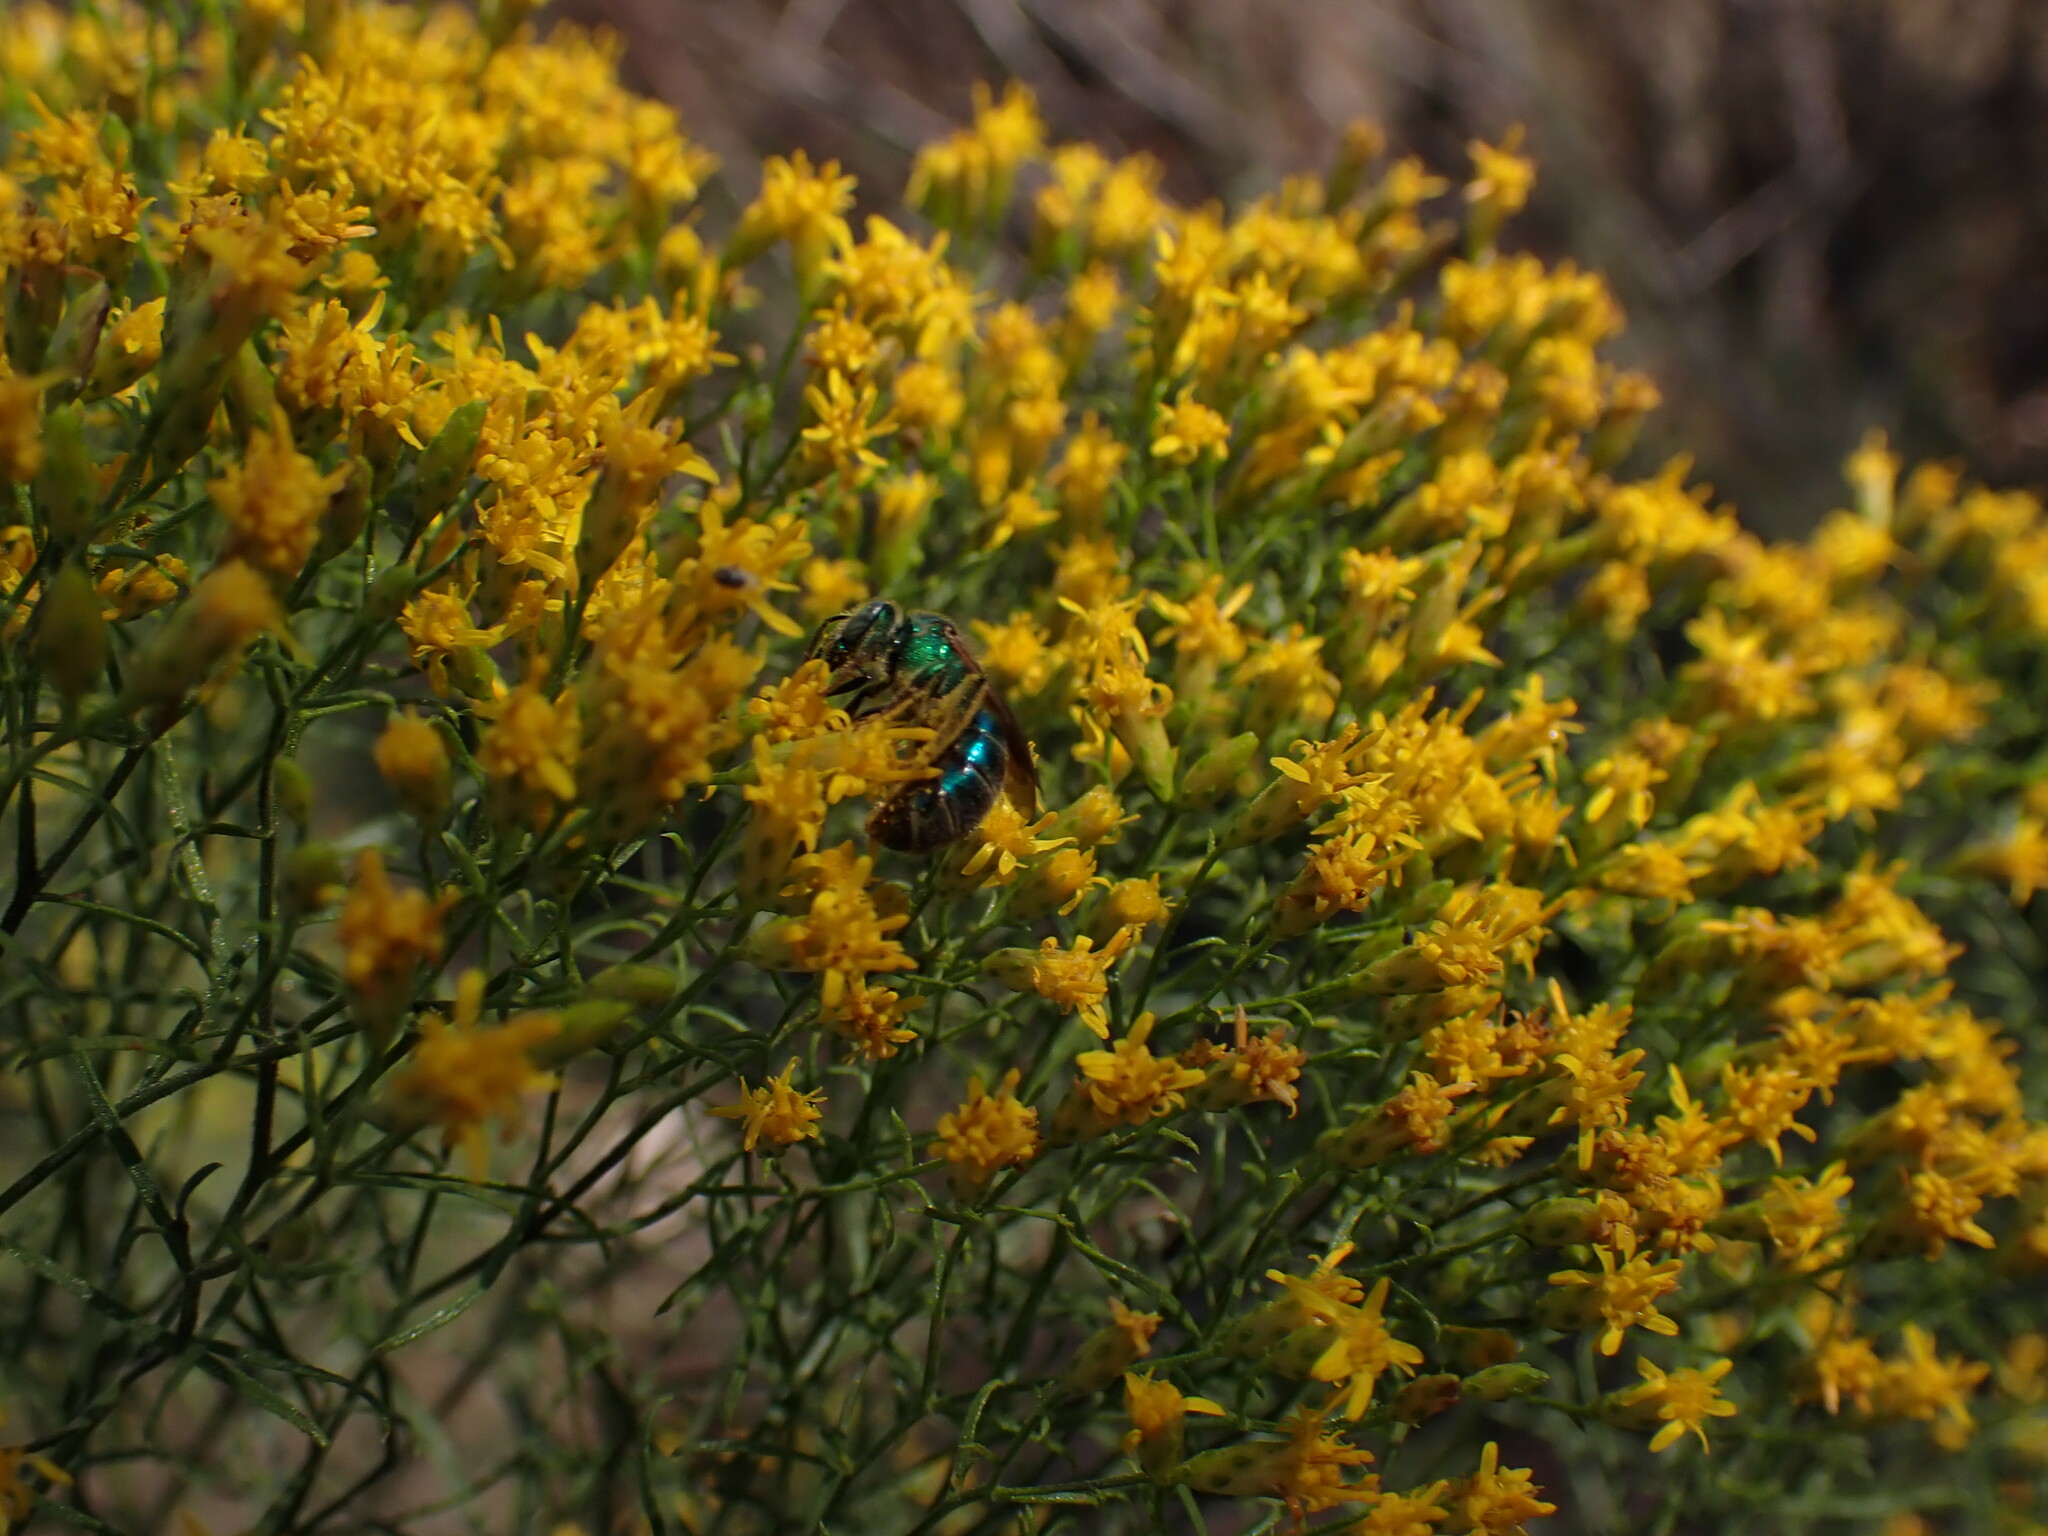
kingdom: Animalia
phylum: Arthropoda
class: Insecta
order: Hymenoptera
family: Halictidae
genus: Agapostemon
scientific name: Agapostemon splendens
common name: Brown-winged striped sweat bee
